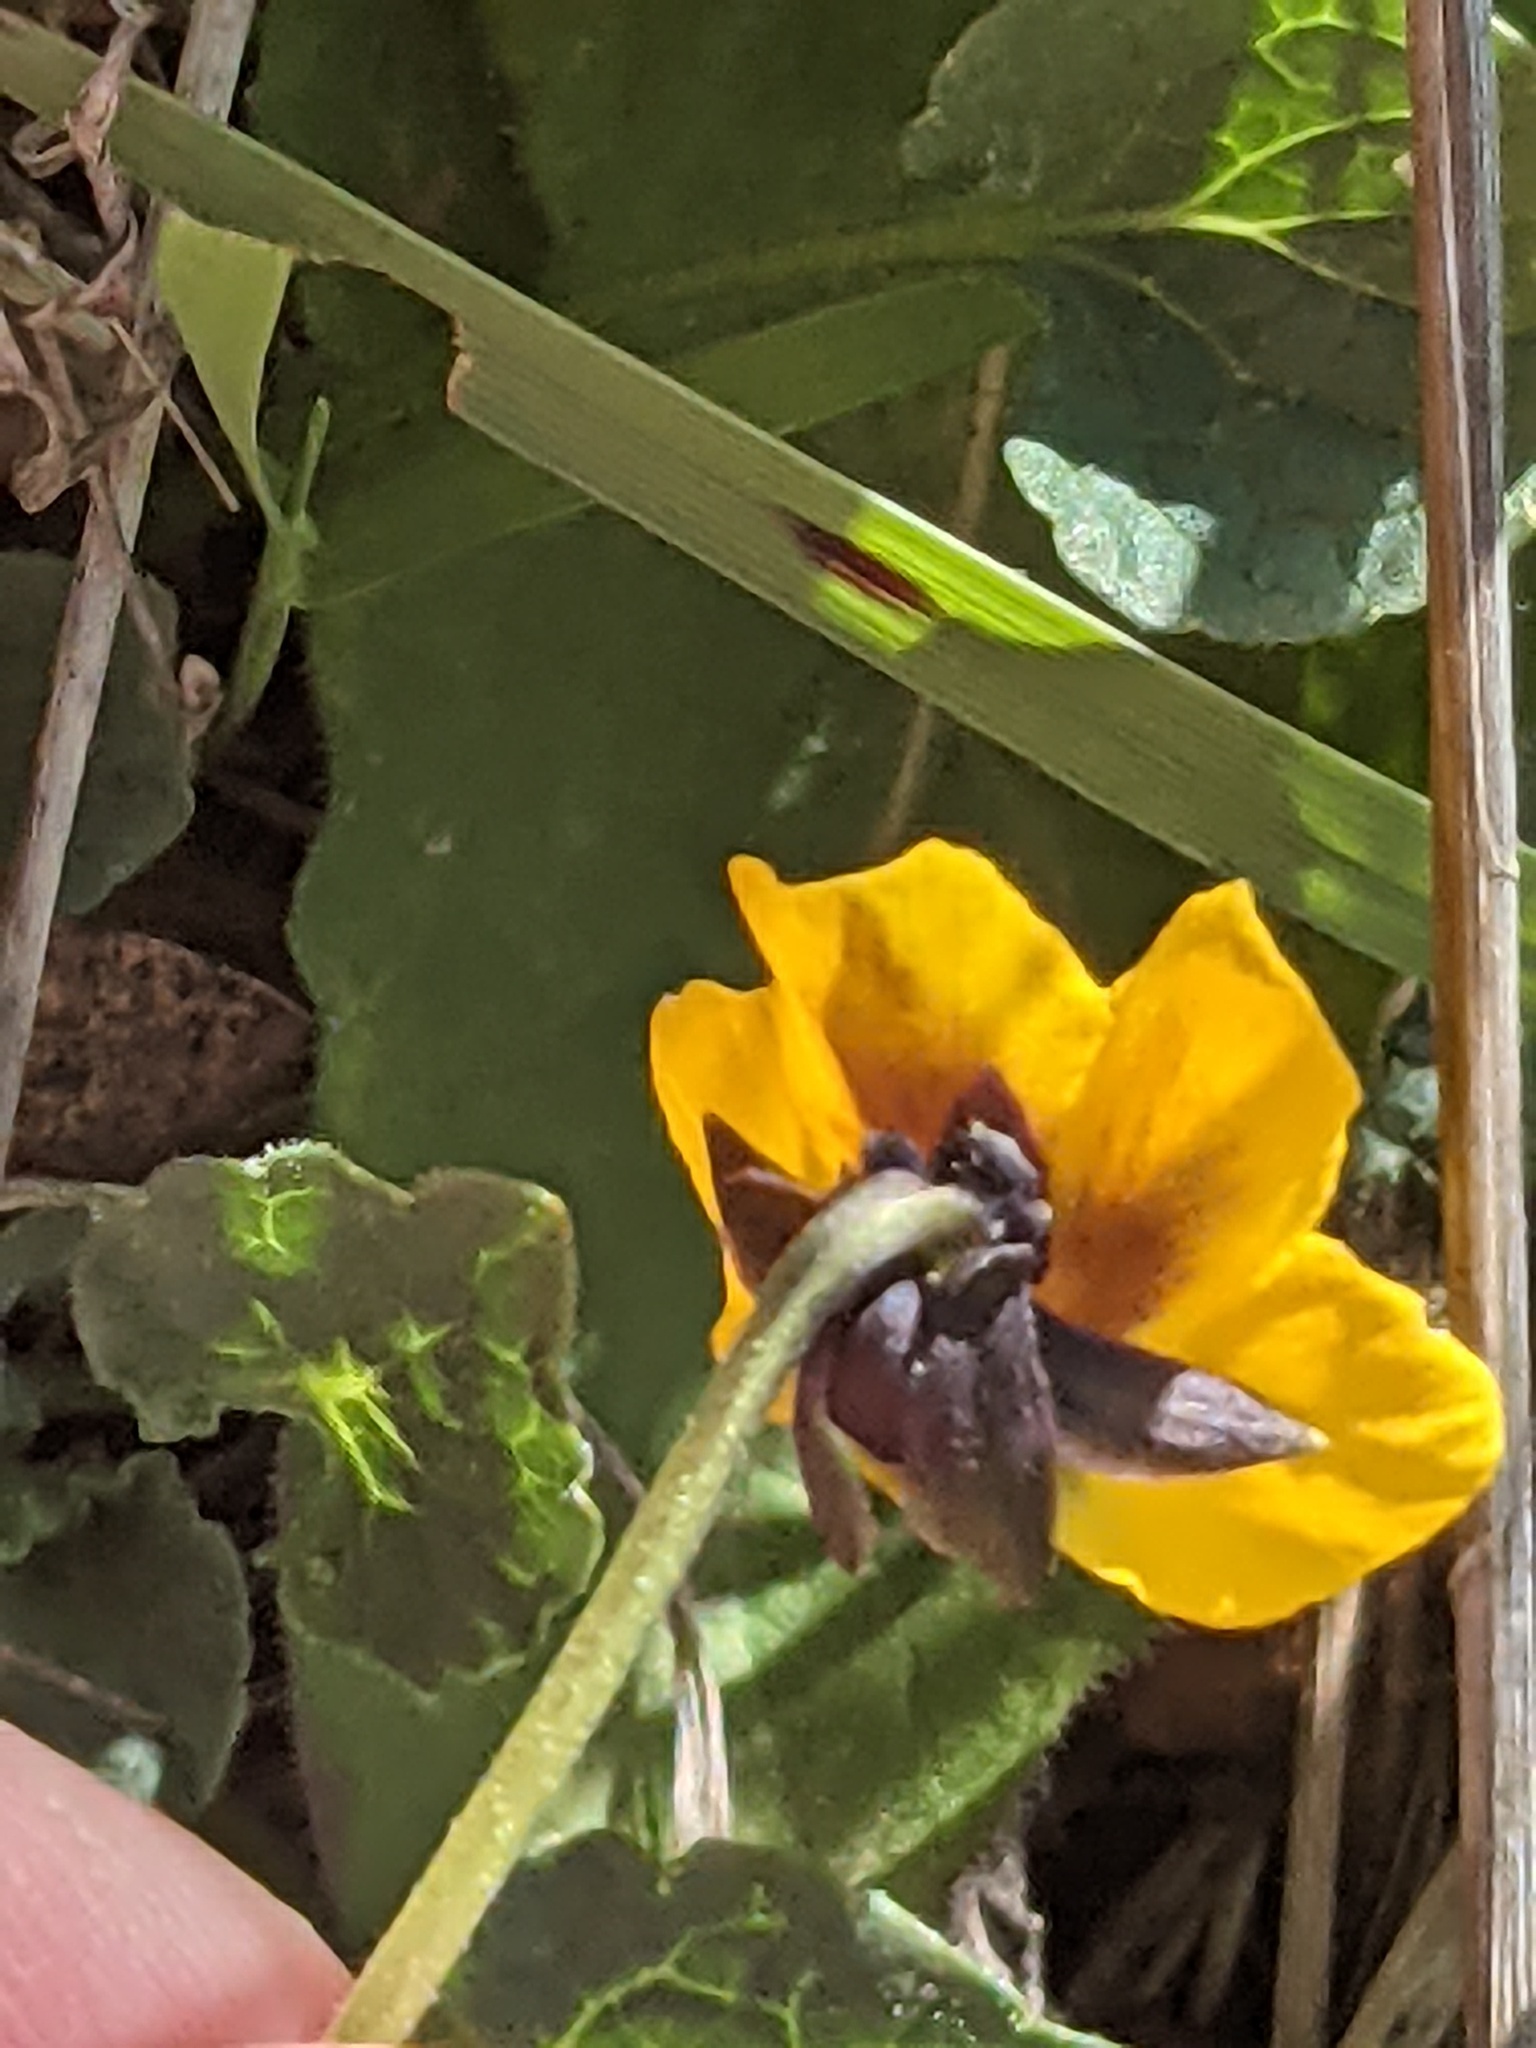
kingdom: Plantae
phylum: Tracheophyta
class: Magnoliopsida
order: Malpighiales
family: Violaceae
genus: Viola
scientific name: Viola pedunculata
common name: California golden violet
